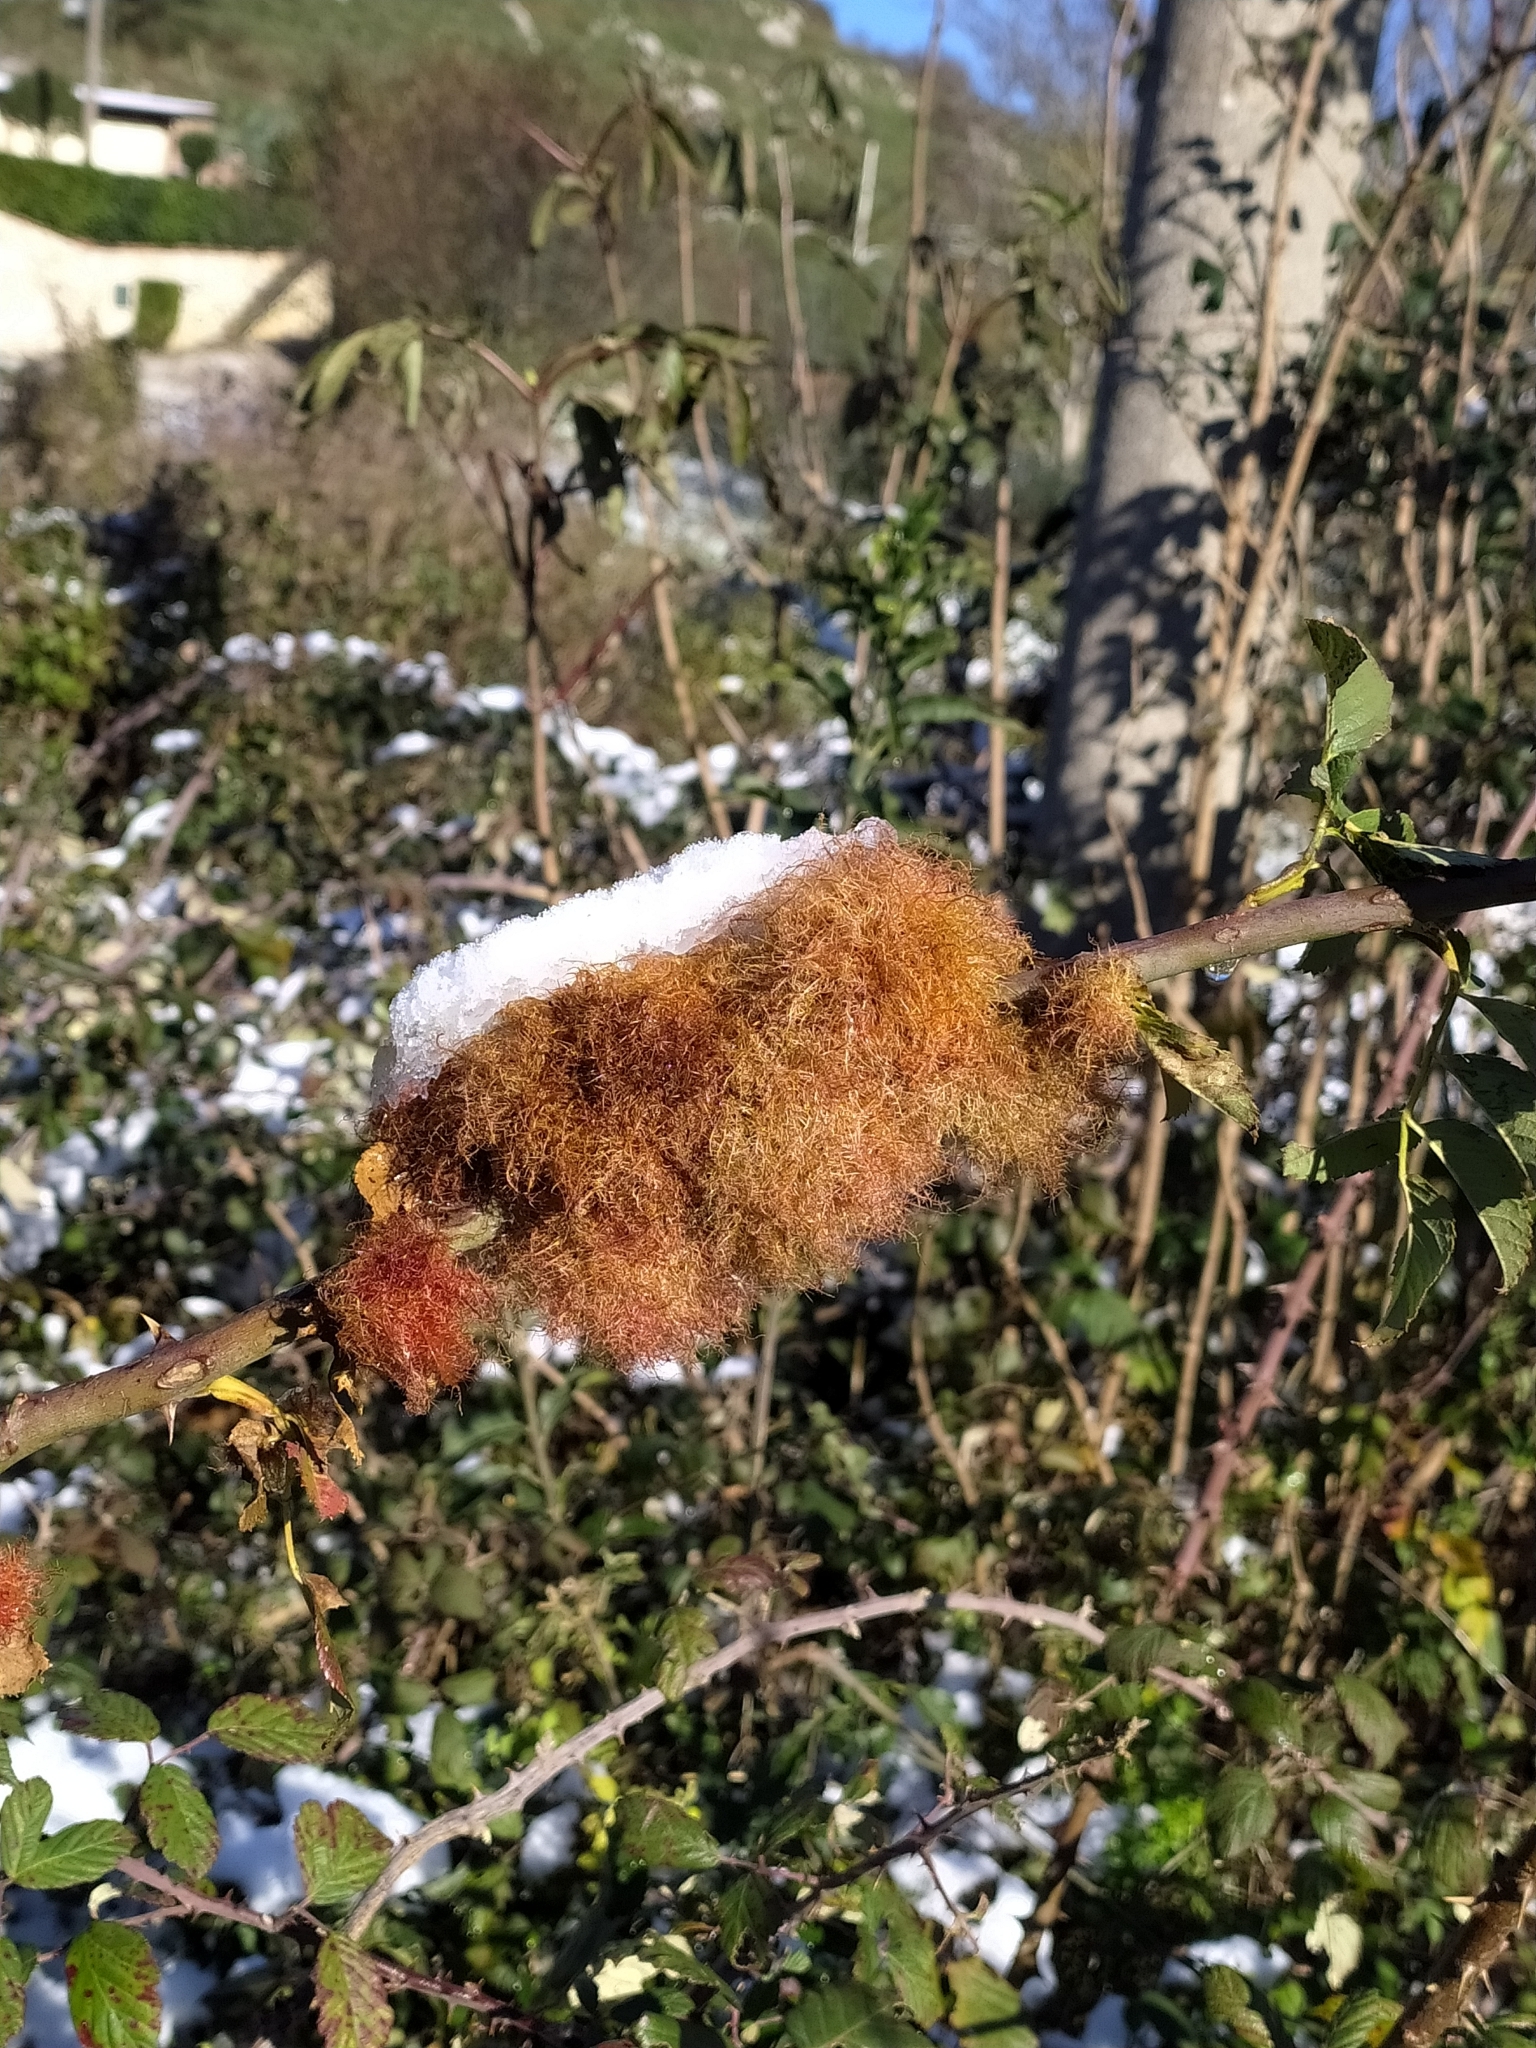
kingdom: Animalia
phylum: Arthropoda
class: Insecta
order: Hymenoptera
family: Cynipidae
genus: Diplolepis
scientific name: Diplolepis rosae
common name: Bedeguar gall
